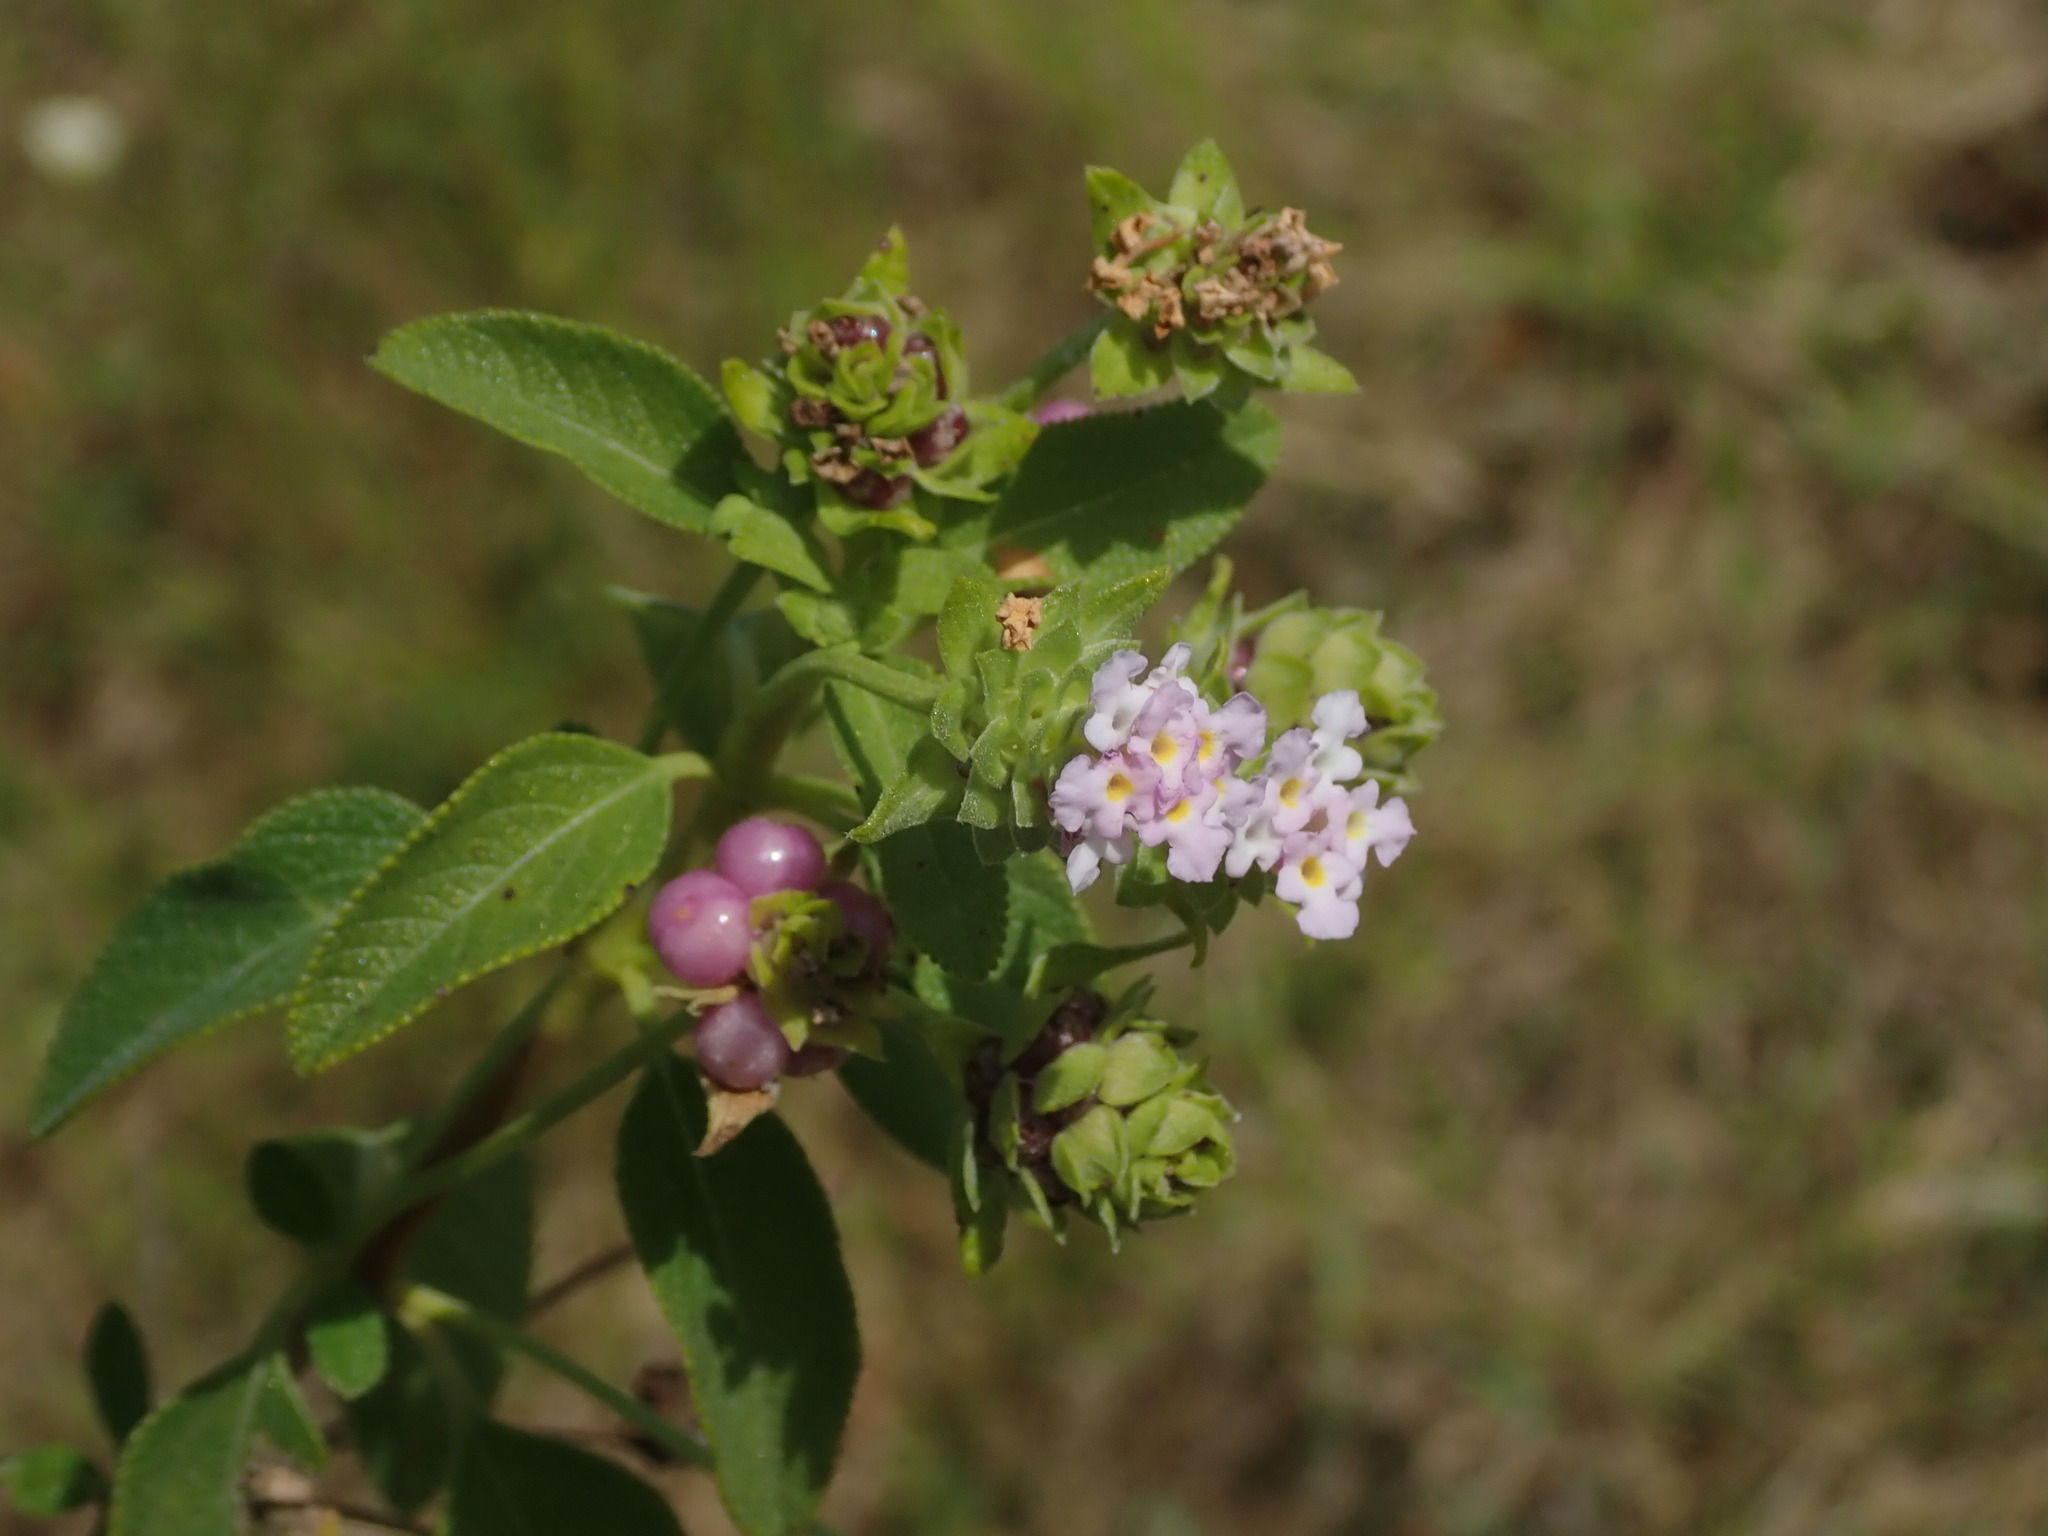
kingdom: Plantae
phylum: Tracheophyta
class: Magnoliopsida
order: Lamiales
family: Verbenaceae
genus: Lantana
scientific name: Lantana involucrata
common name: Black sage
